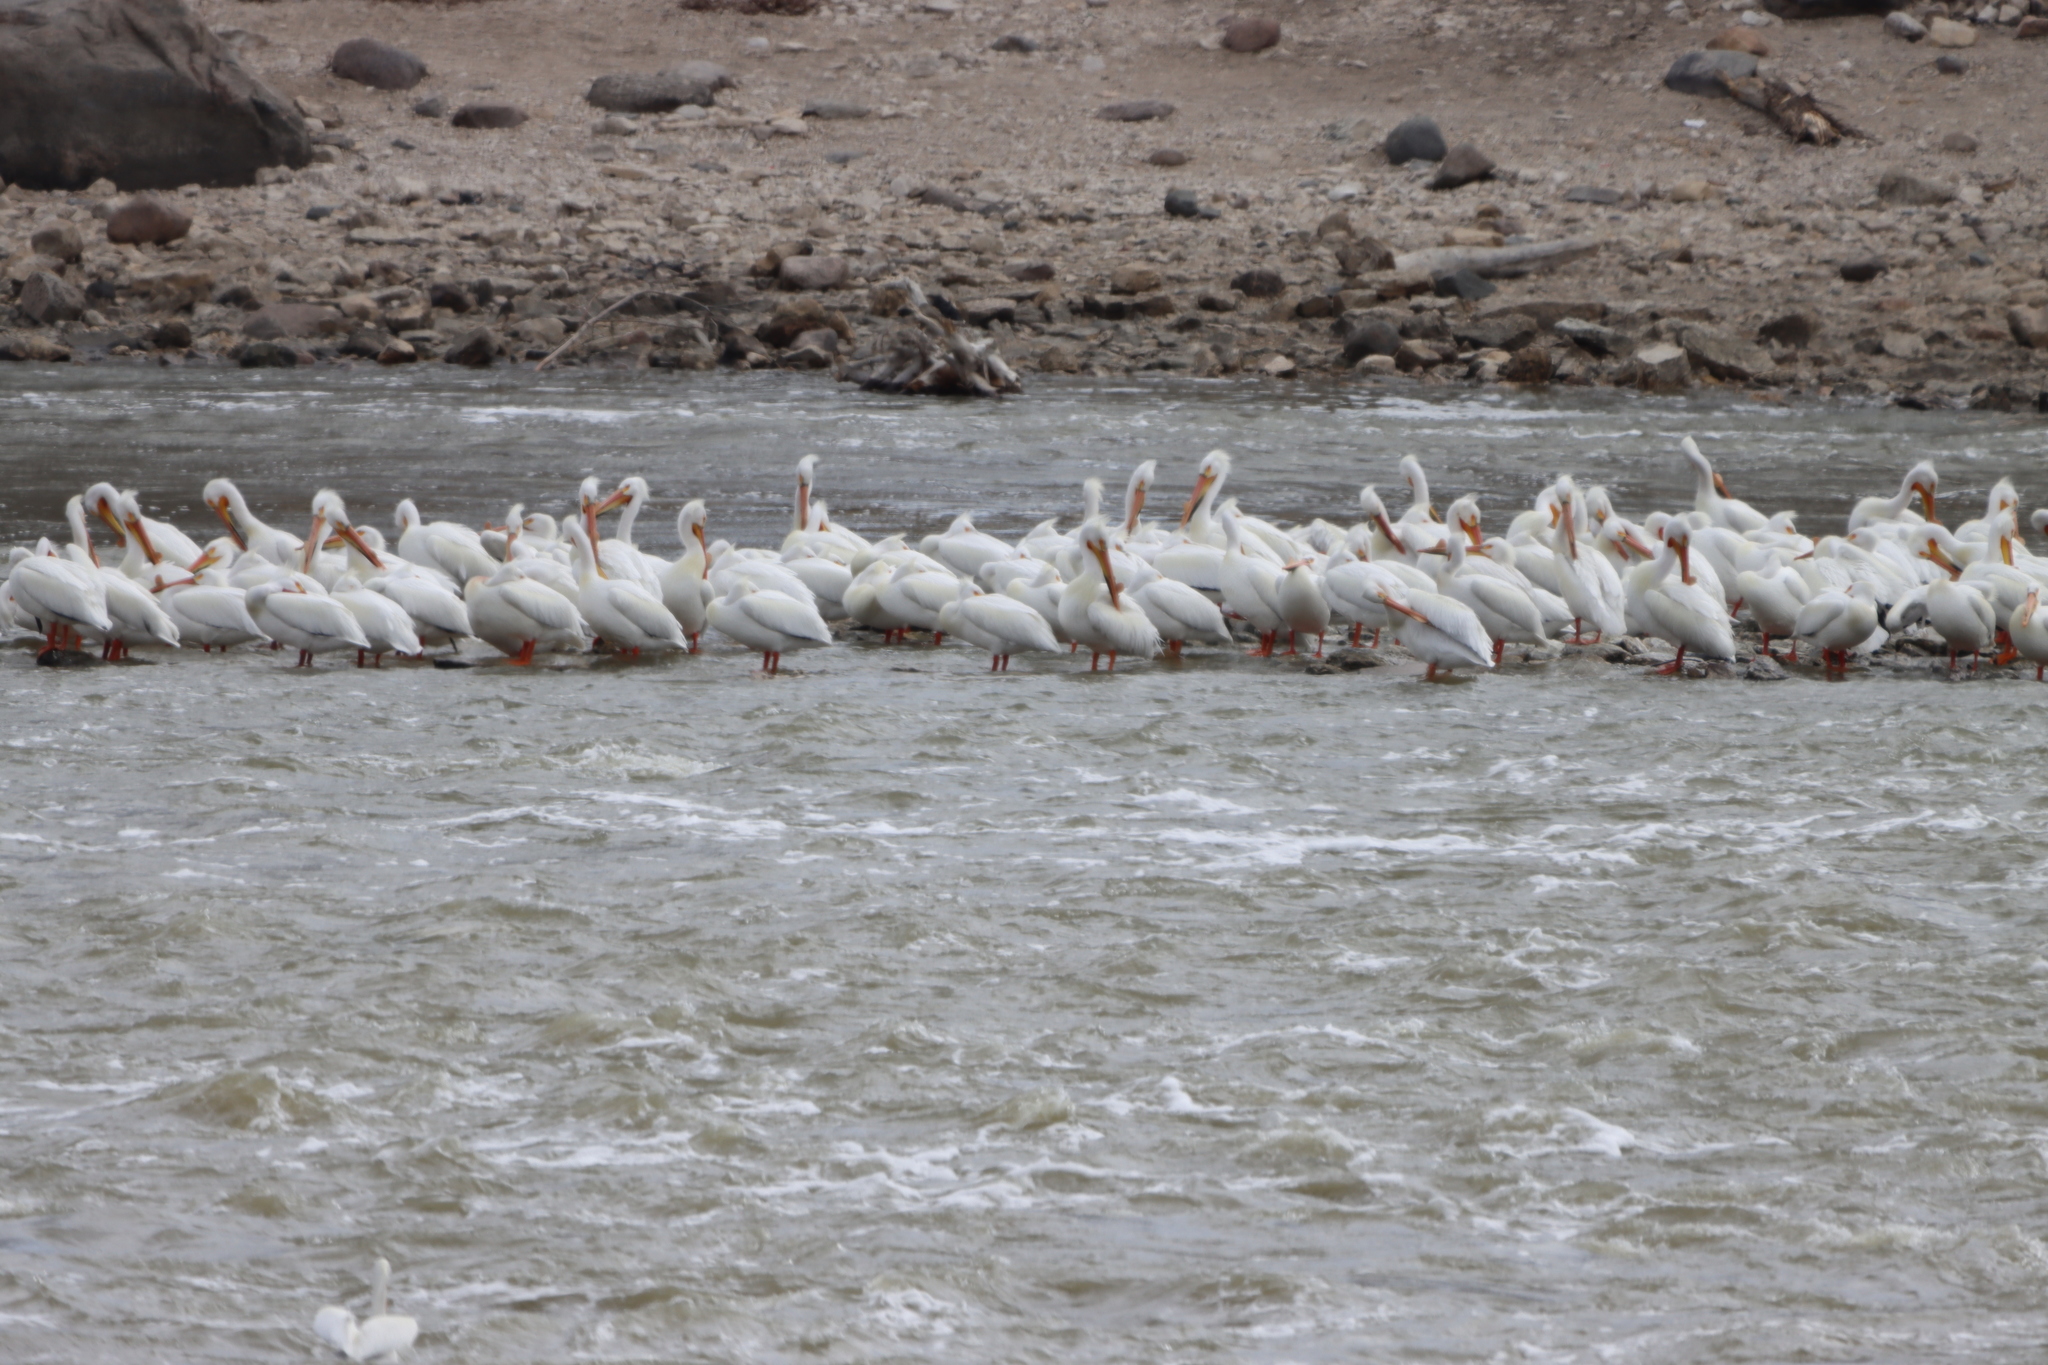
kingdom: Animalia
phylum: Chordata
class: Aves
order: Pelecaniformes
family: Pelecanidae
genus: Pelecanus
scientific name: Pelecanus erythrorhynchos
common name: American white pelican
